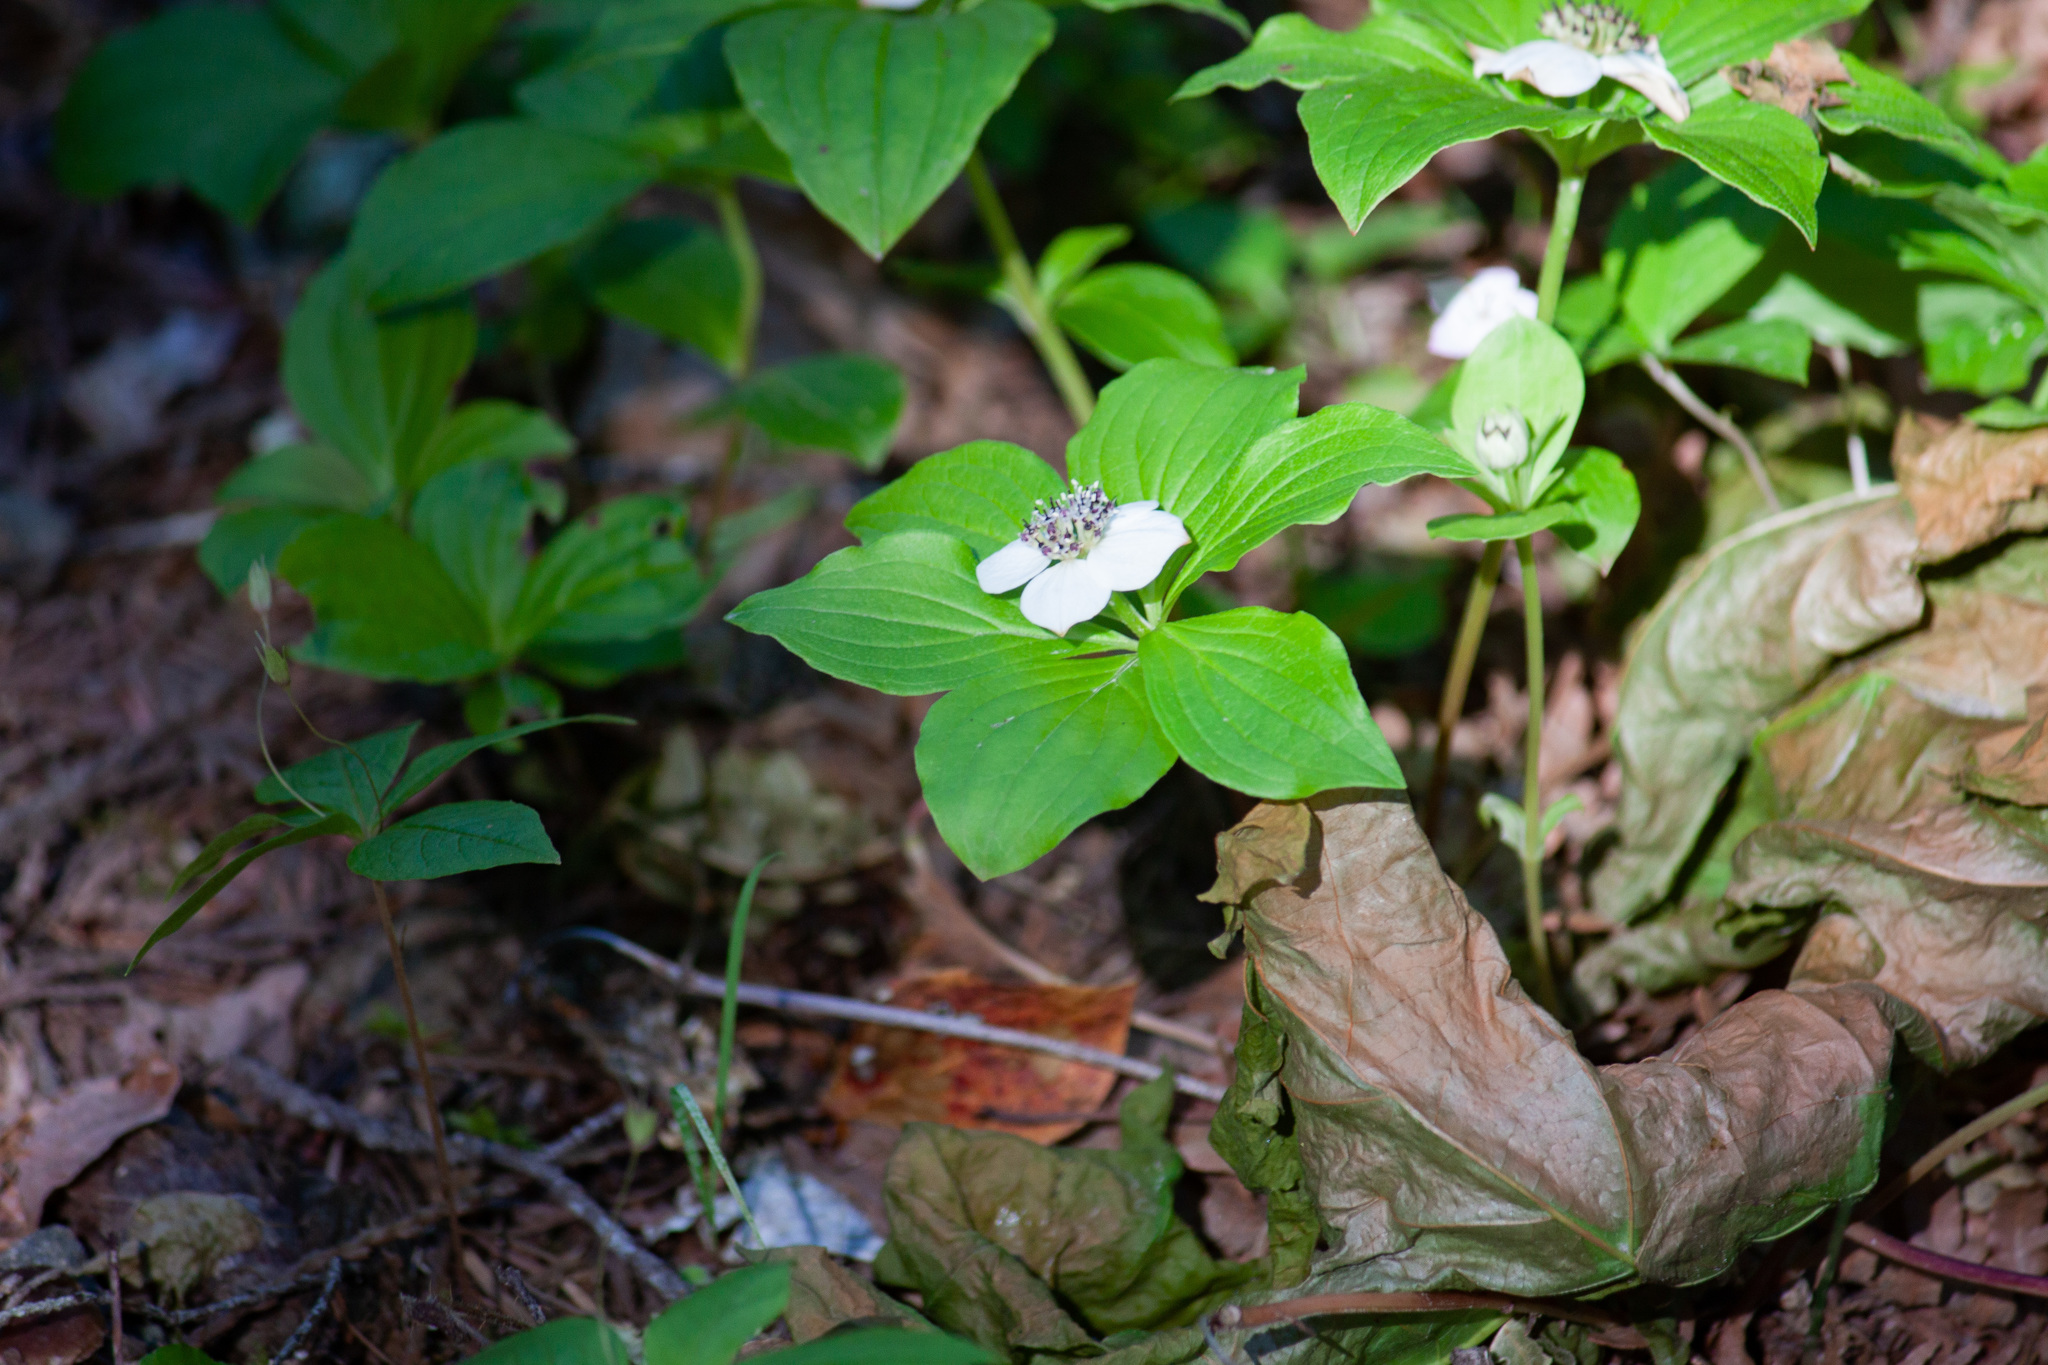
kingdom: Plantae
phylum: Tracheophyta
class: Magnoliopsida
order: Cornales
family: Cornaceae
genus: Cornus
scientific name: Cornus unalaschkensis
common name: Alaska bunchberry
